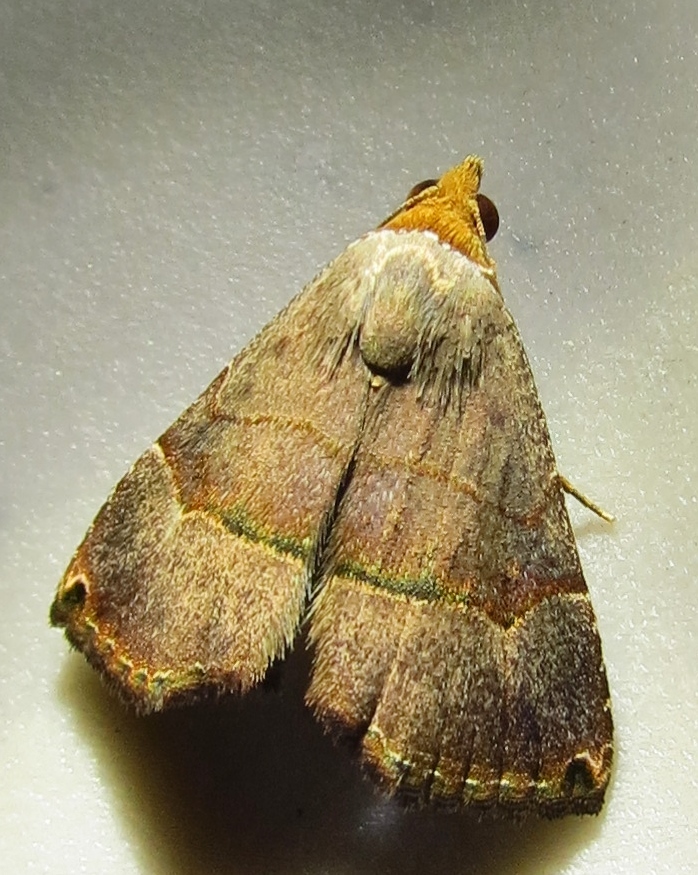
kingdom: Animalia
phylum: Arthropoda
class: Insecta
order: Lepidoptera
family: Noctuidae
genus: Abacena
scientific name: Abacena mundula
